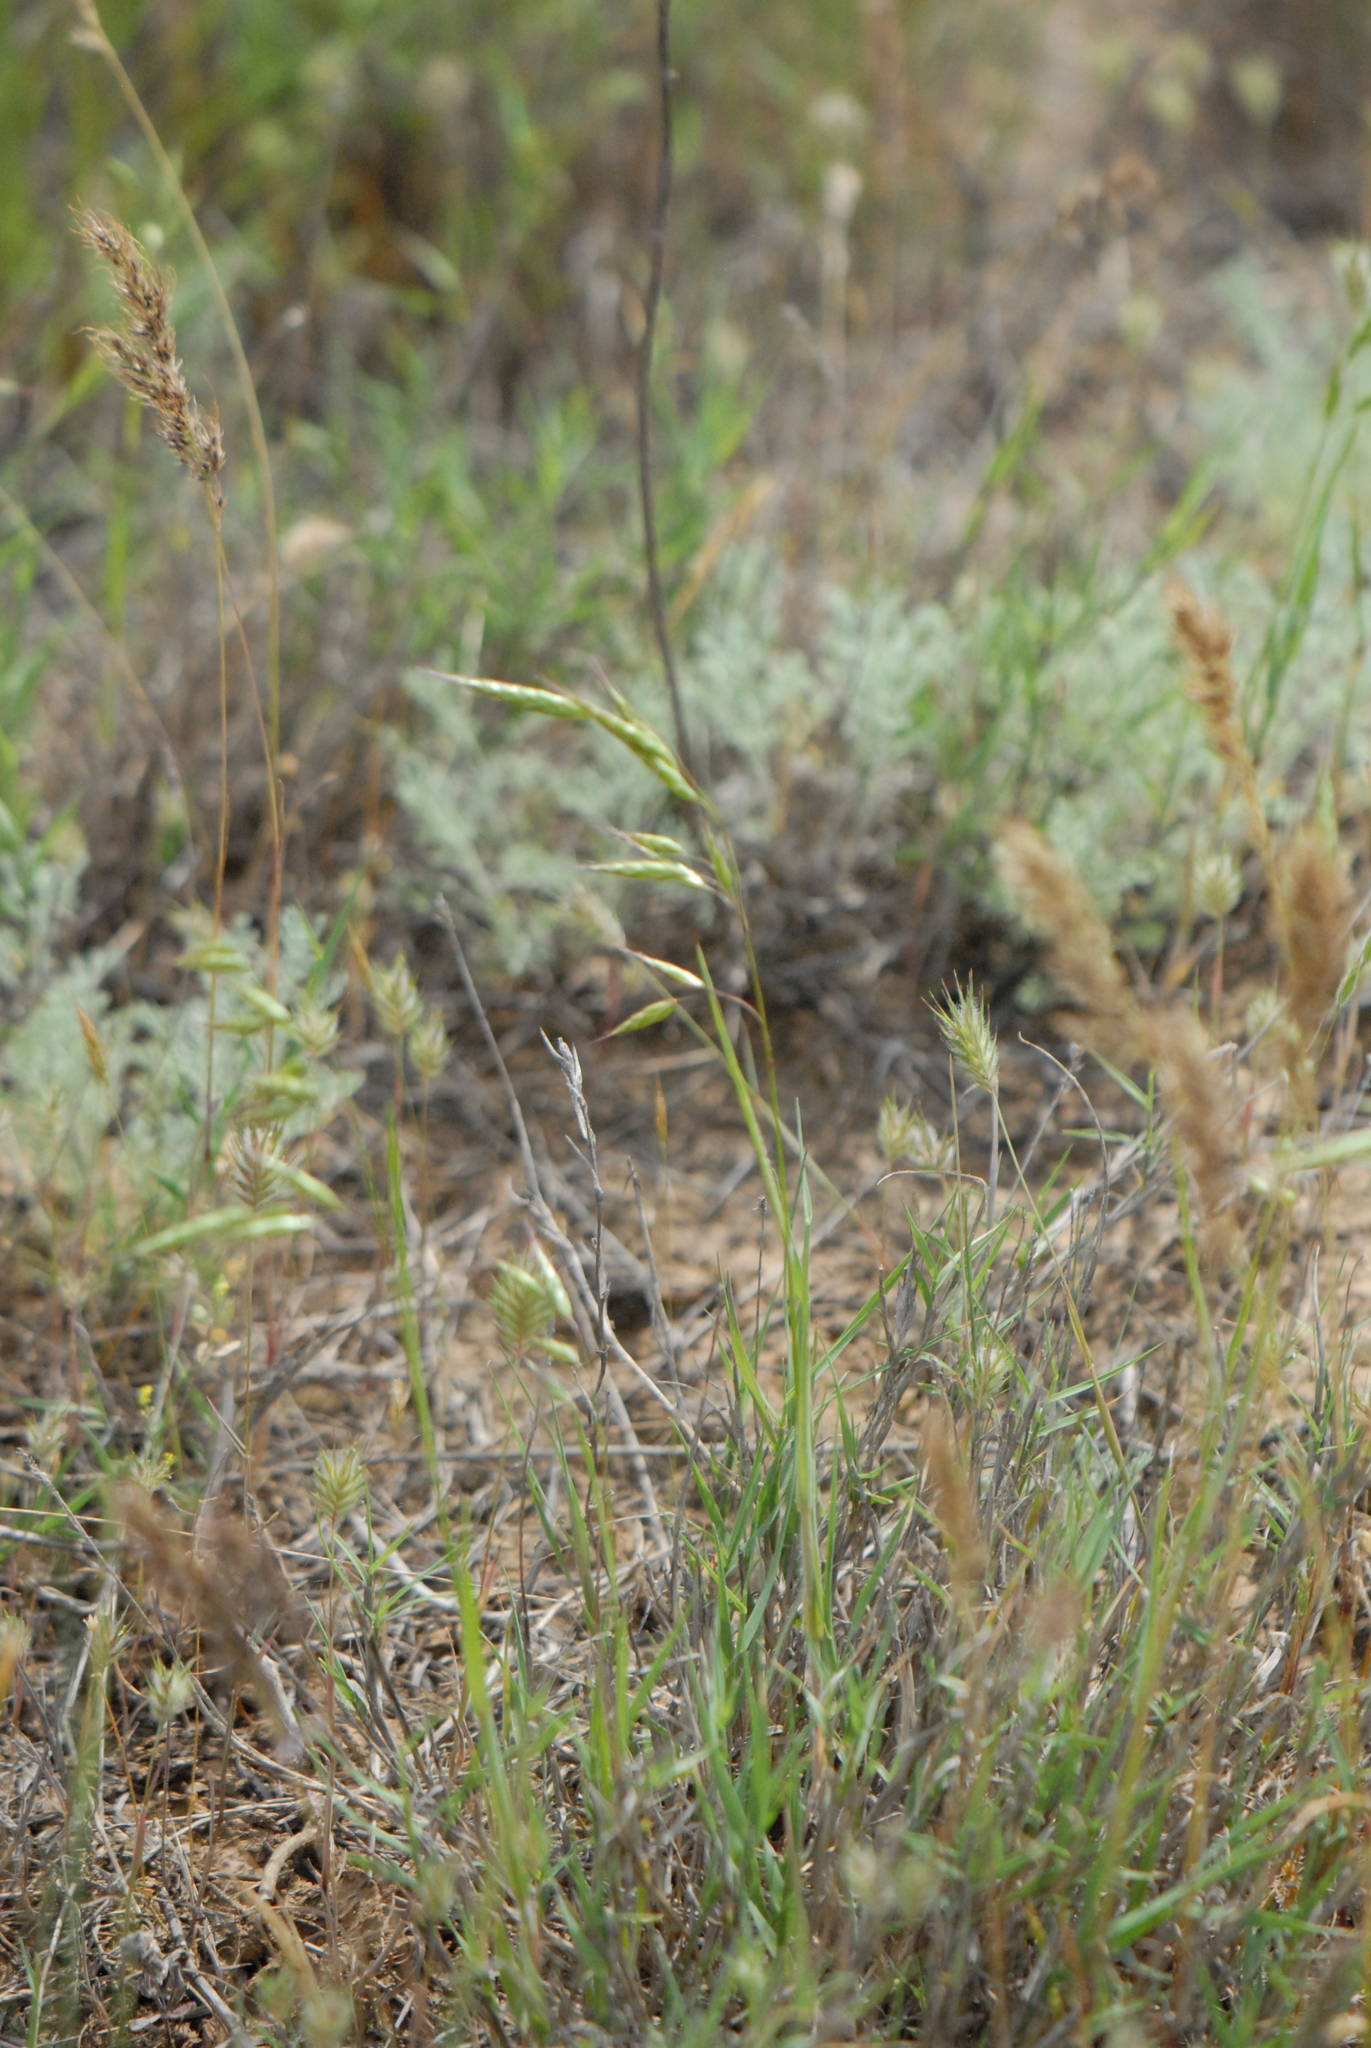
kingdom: Plantae
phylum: Tracheophyta
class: Liliopsida
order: Poales
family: Poaceae
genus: Bromus
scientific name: Bromus squarrosus
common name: Corn brome
